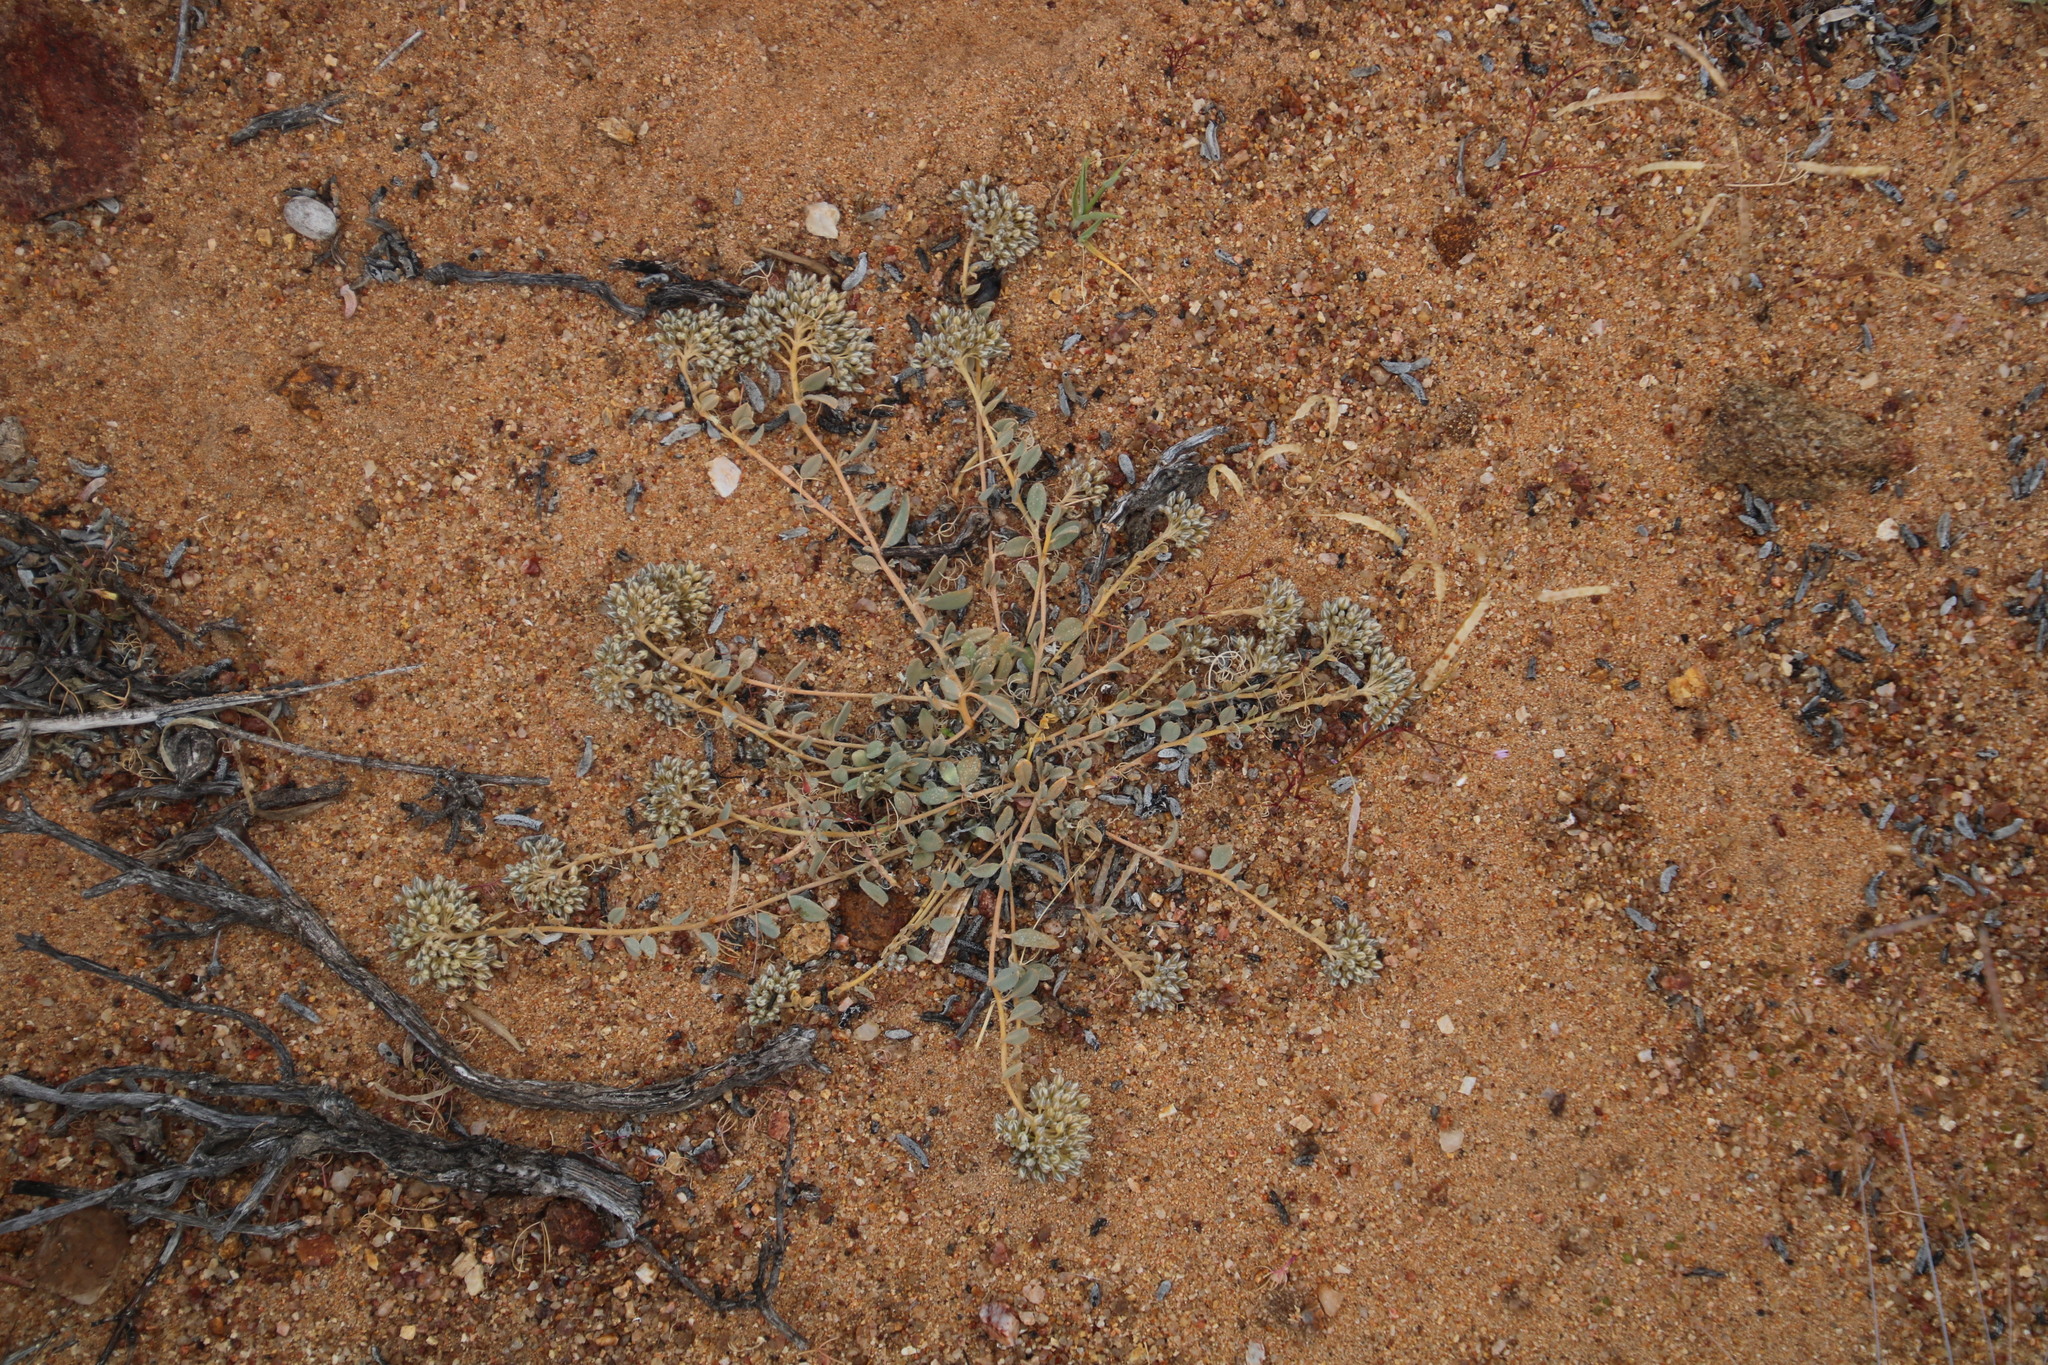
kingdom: Plantae
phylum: Tracheophyta
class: Magnoliopsida
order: Caryophyllales
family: Limeaceae
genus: Limeum
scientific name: Limeum africanum
